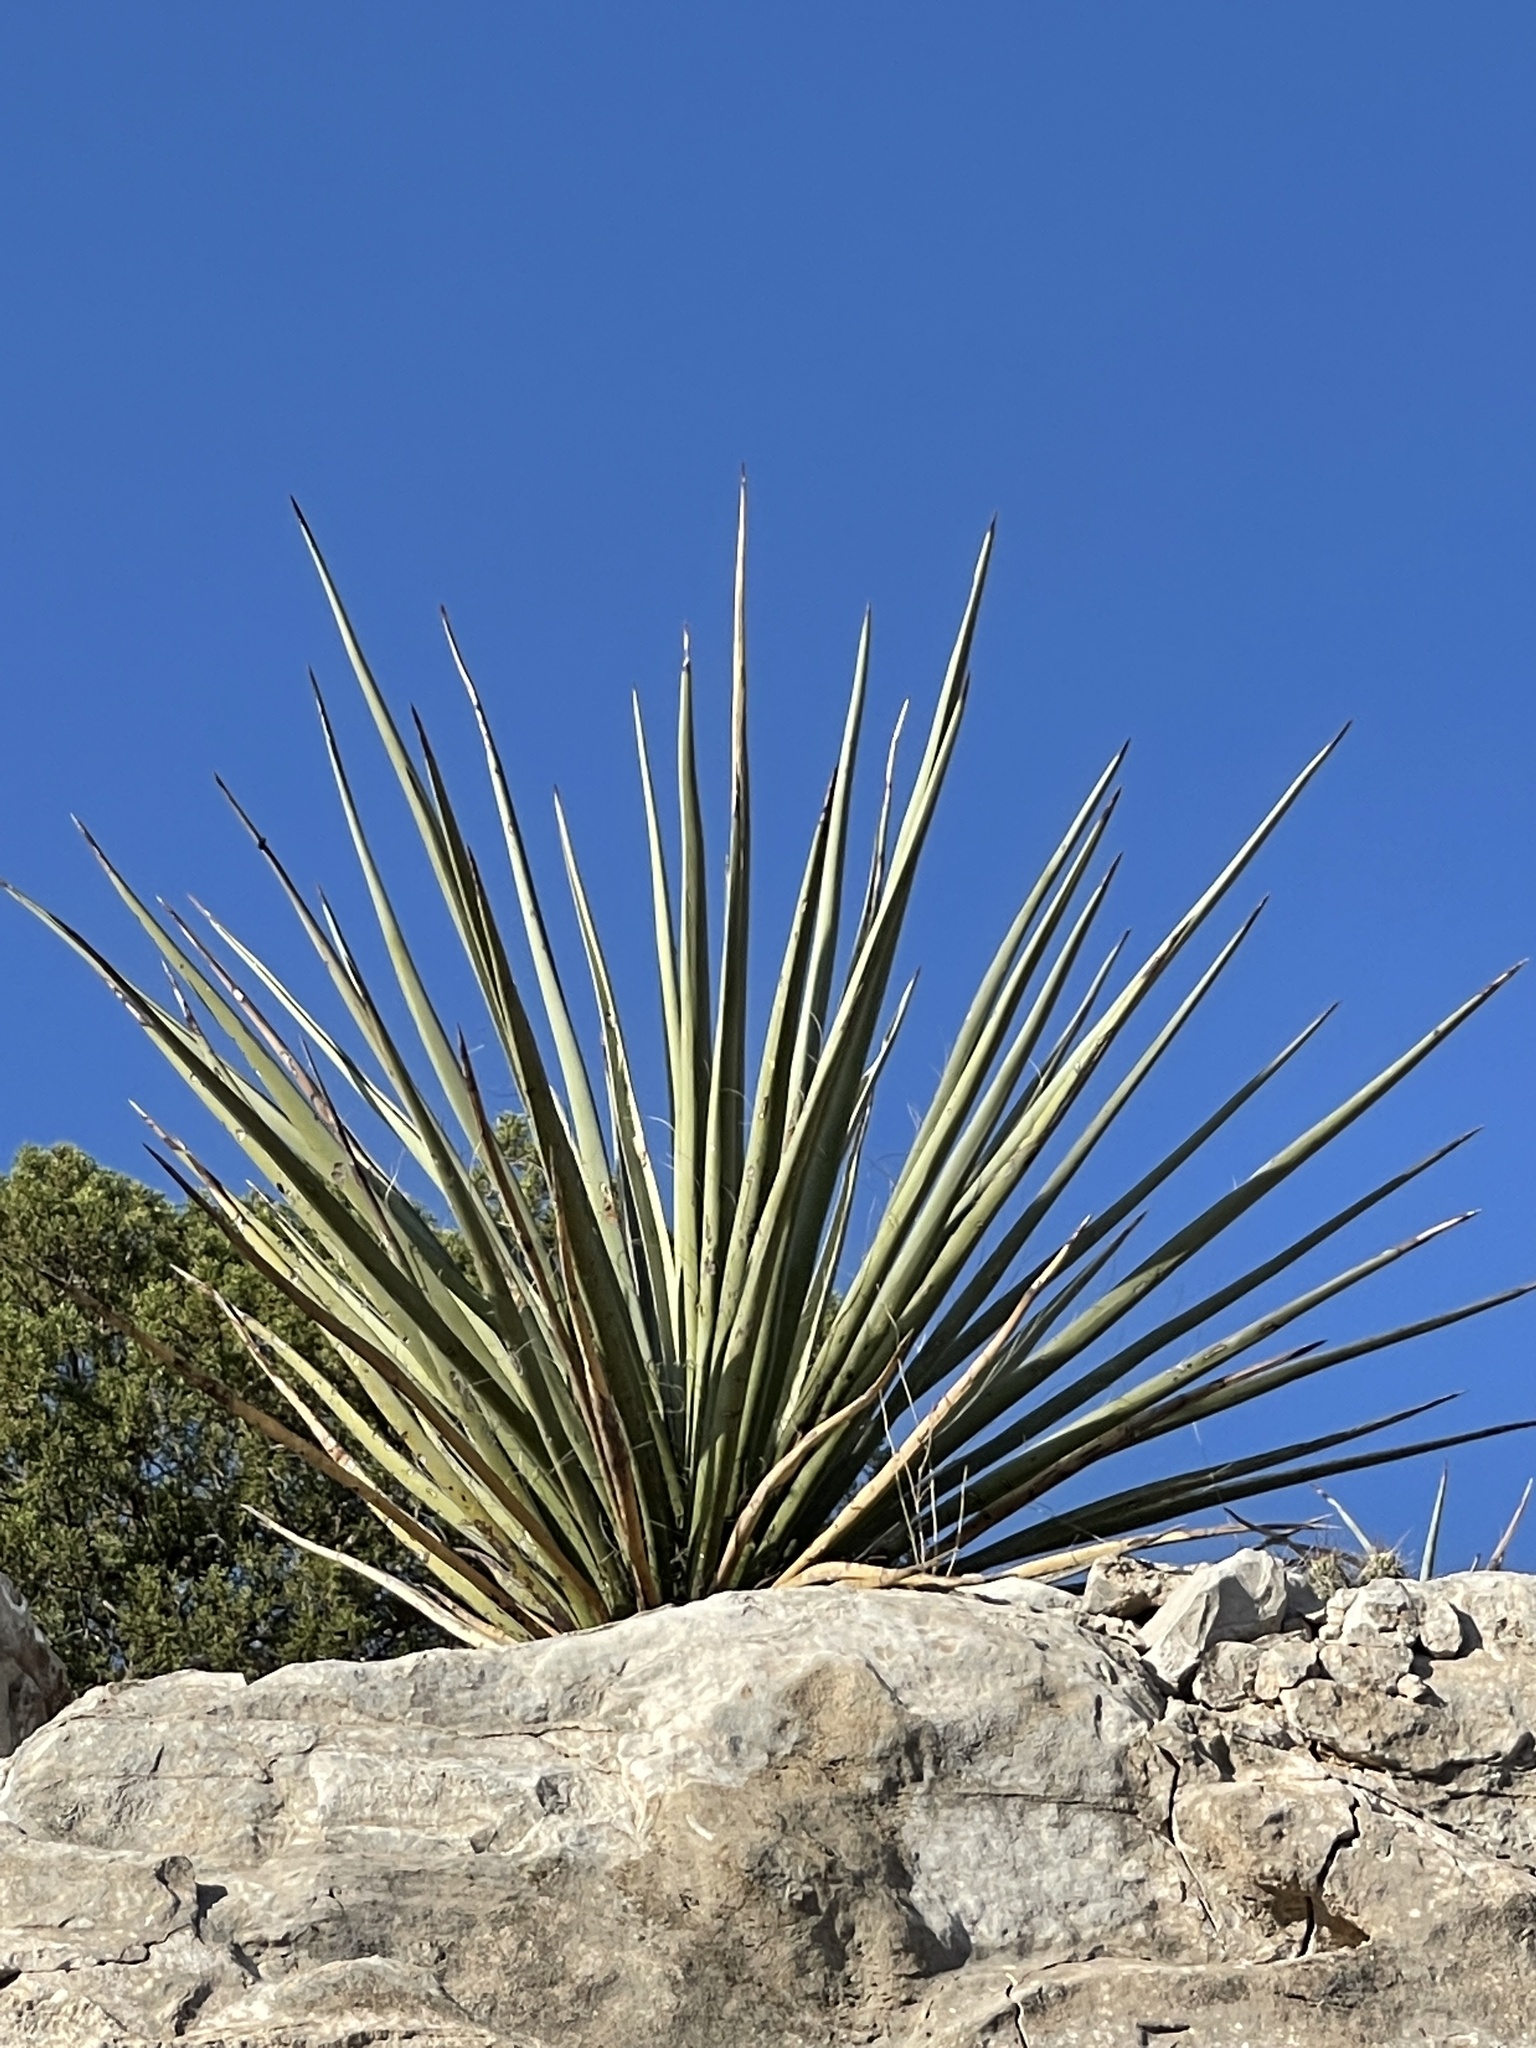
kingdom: Plantae
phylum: Tracheophyta
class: Liliopsida
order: Asparagales
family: Asparagaceae
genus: Yucca
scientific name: Yucca treculiana
